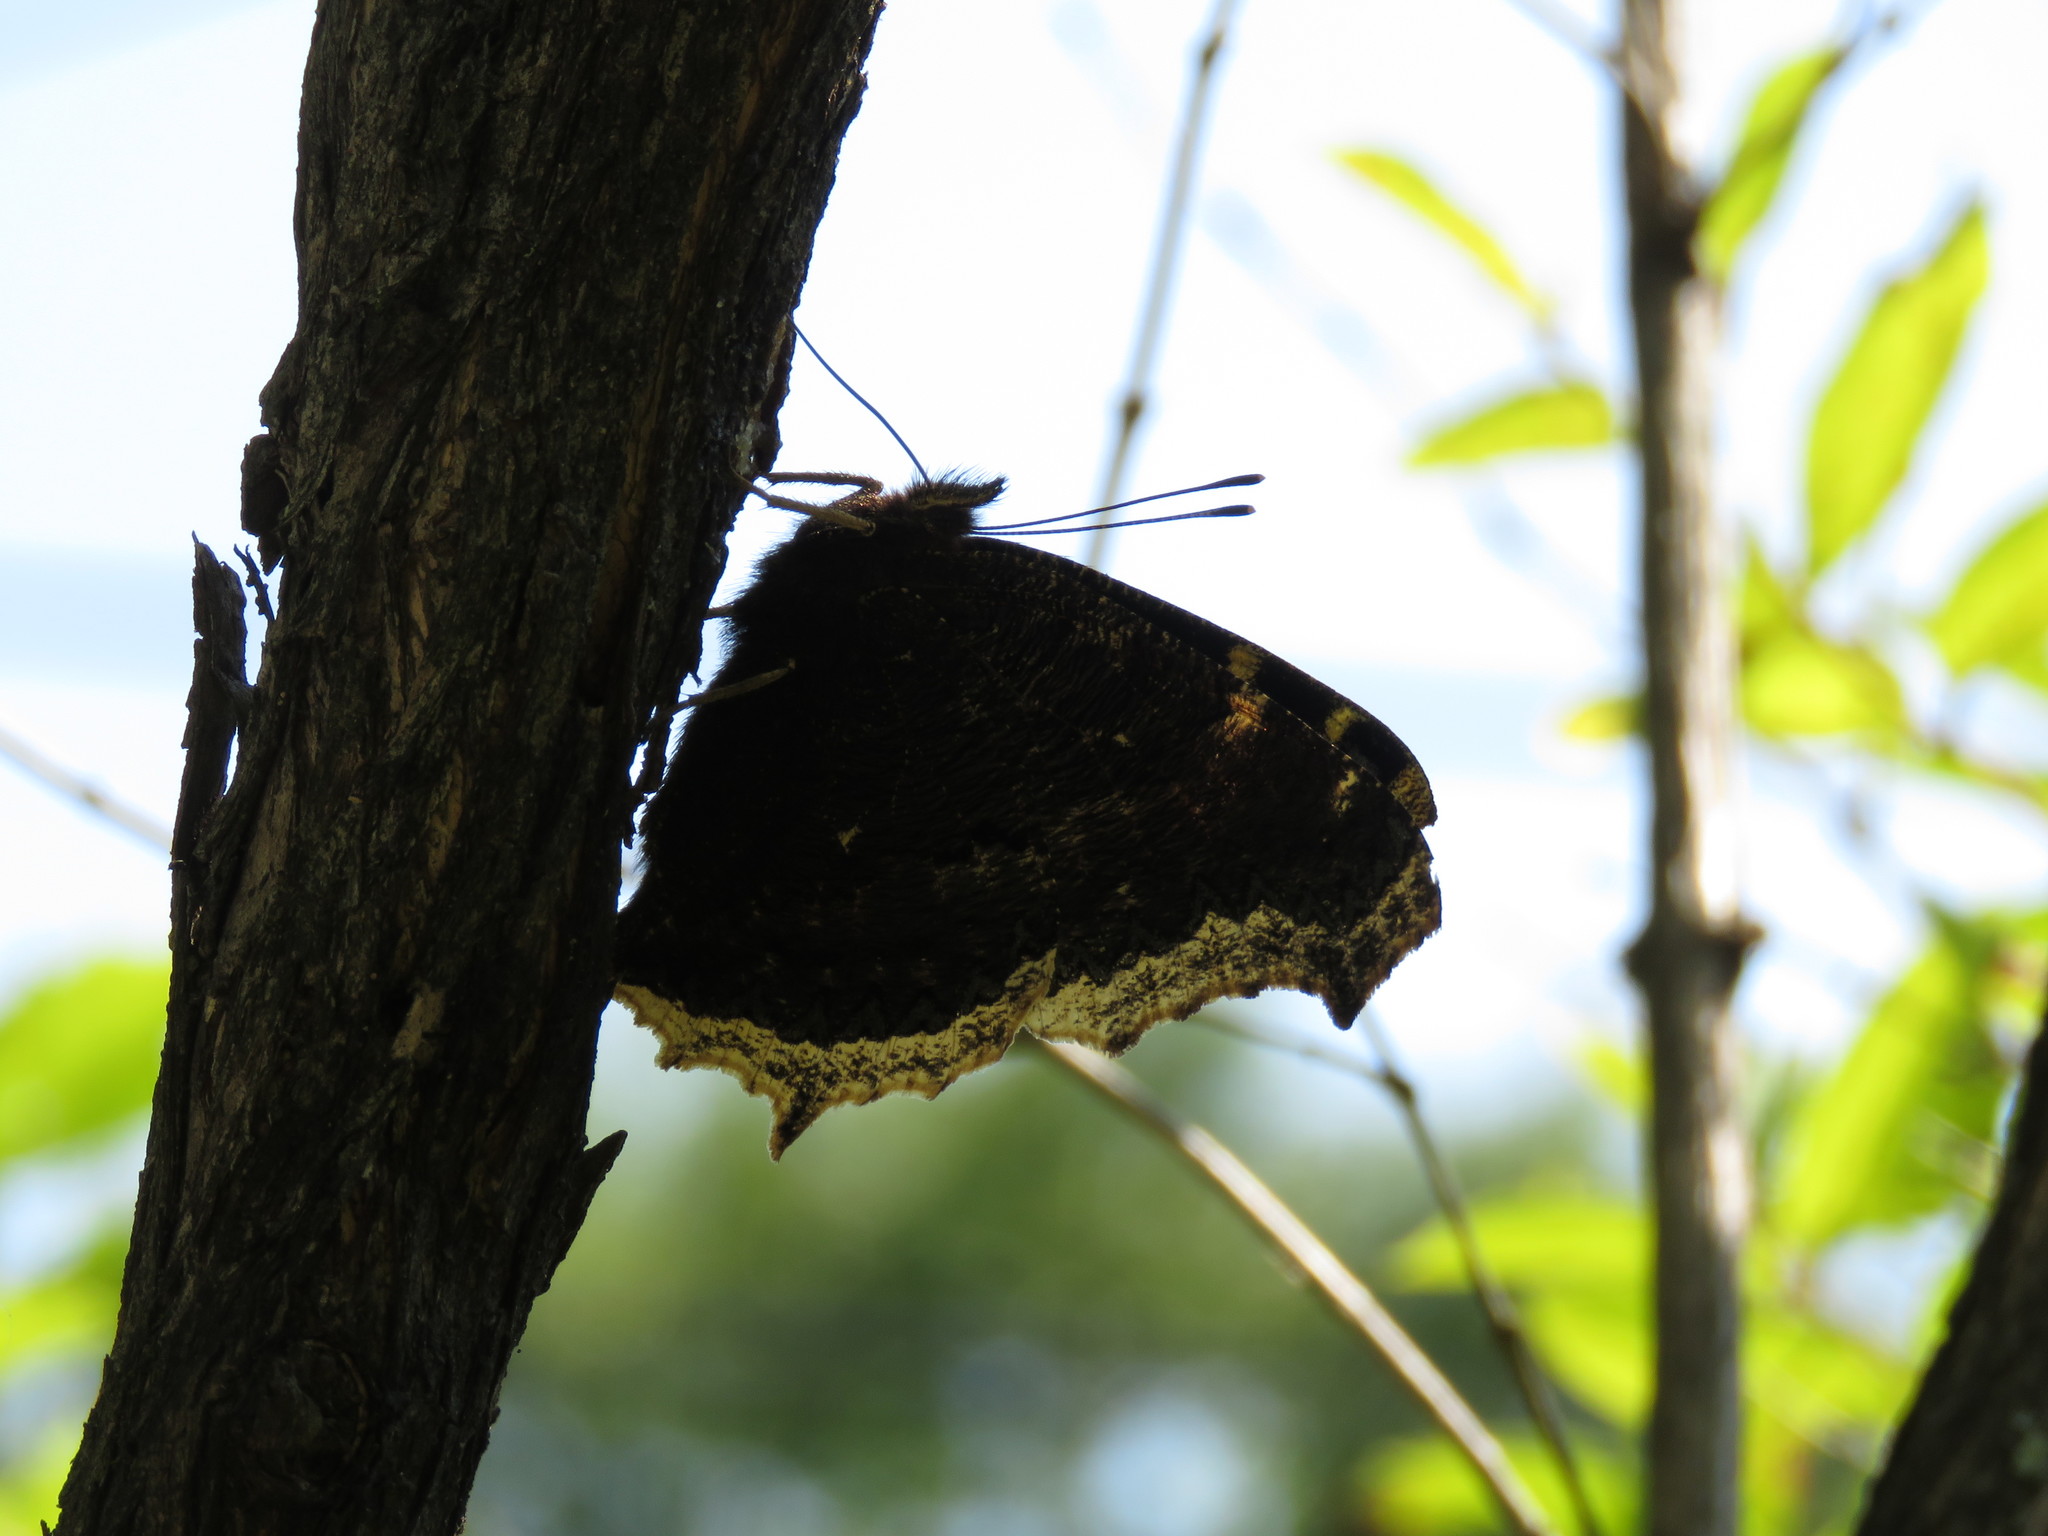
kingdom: Animalia
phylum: Arthropoda
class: Insecta
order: Lepidoptera
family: Nymphalidae
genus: Nymphalis
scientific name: Nymphalis antiopa
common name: Camberwell beauty
